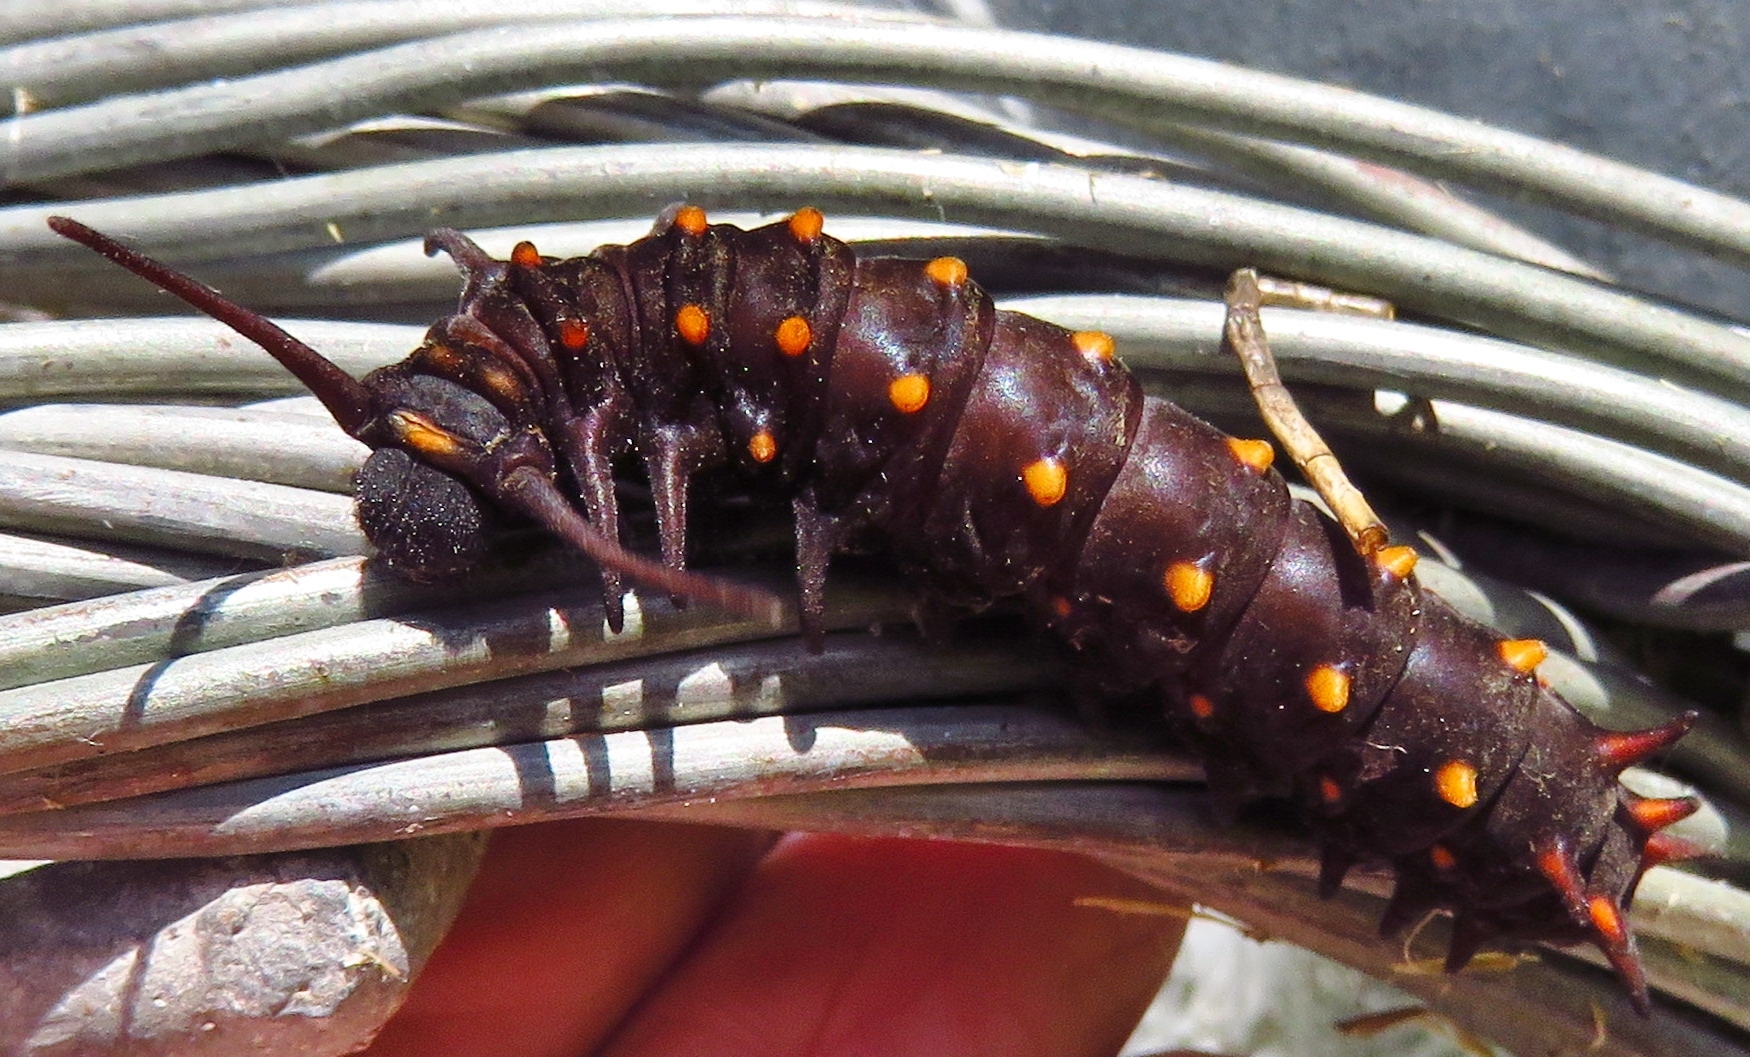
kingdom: Animalia
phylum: Arthropoda
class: Insecta
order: Lepidoptera
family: Papilionidae
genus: Battus
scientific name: Battus philenor
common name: Pipevine swallowtail
